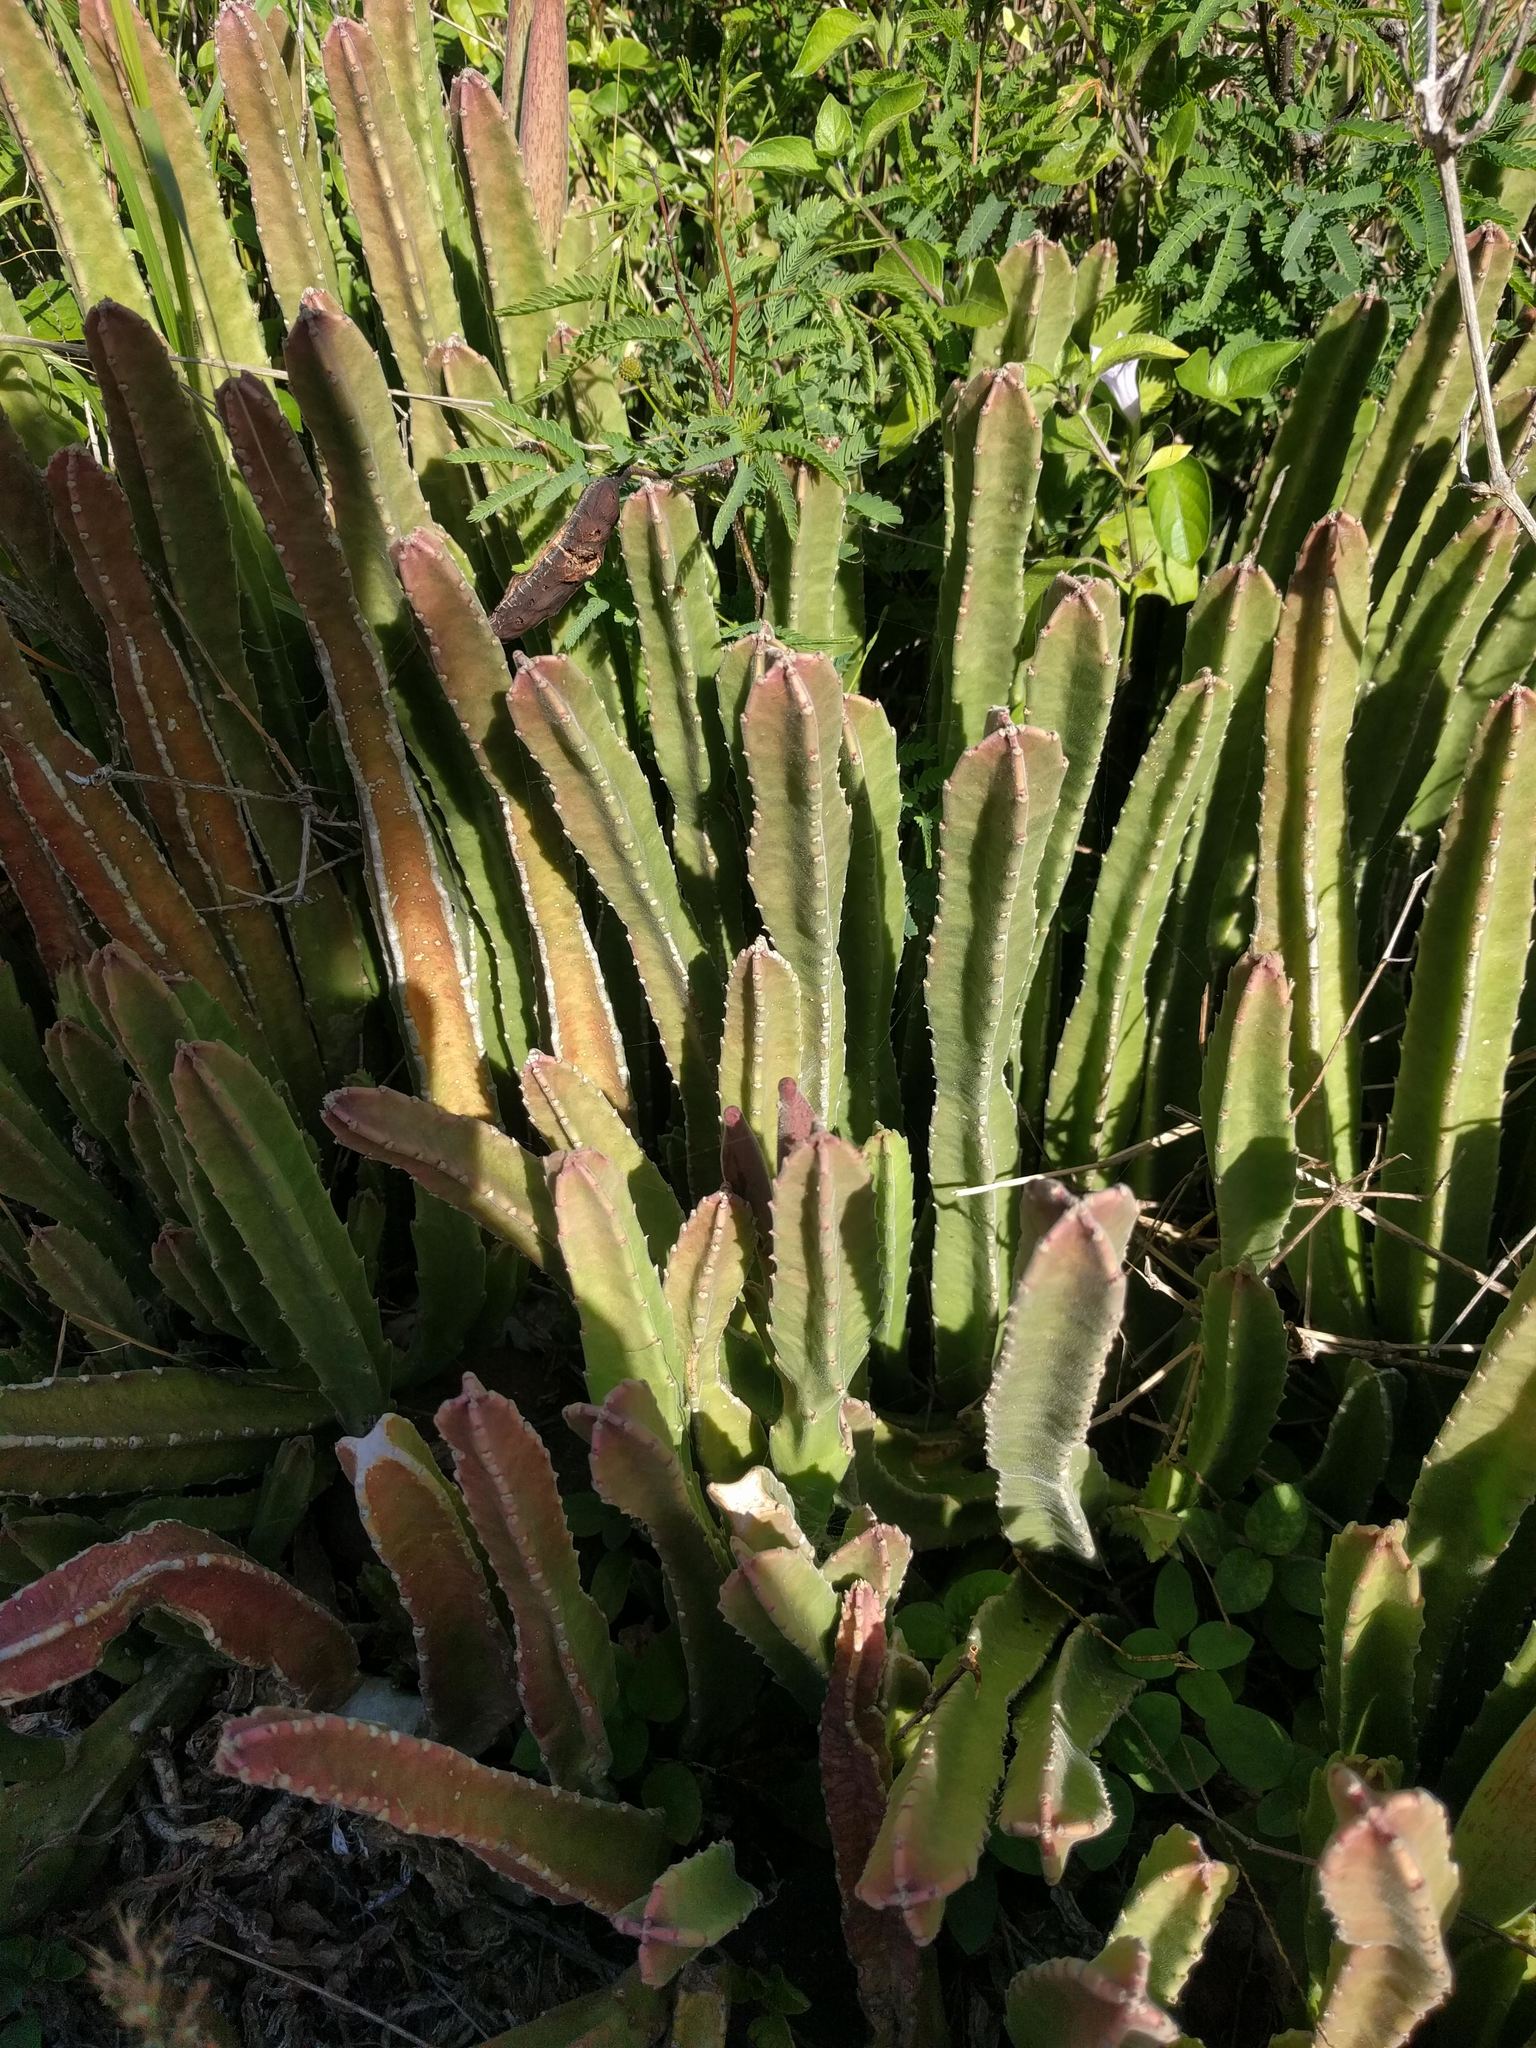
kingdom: Plantae
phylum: Tracheophyta
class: Magnoliopsida
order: Gentianales
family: Apocynaceae
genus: Ceropegia
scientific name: Ceropegia gigantea
